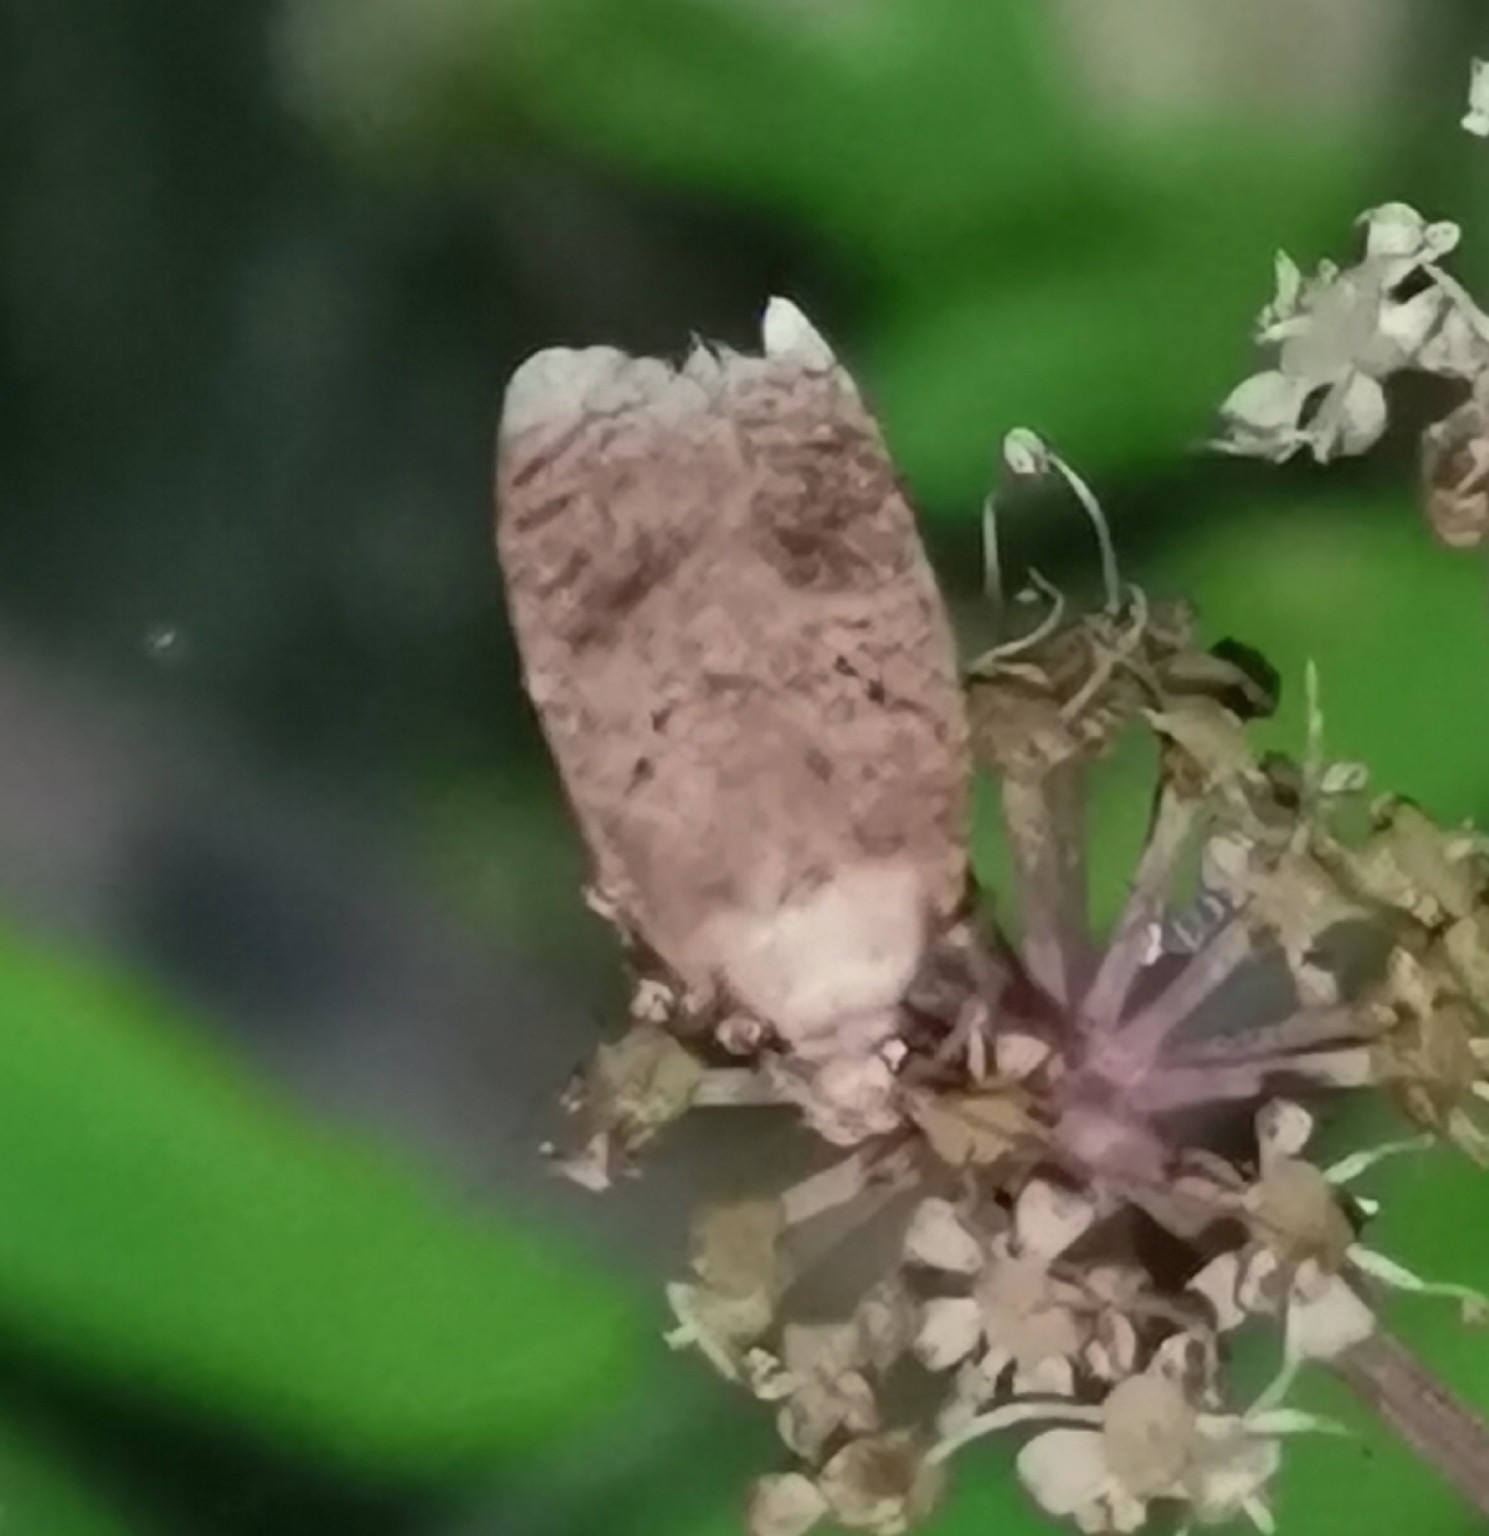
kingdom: Animalia
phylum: Arthropoda
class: Insecta
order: Lepidoptera
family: Depressariidae
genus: Agonopterix
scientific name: Agonopterix angelicella
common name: Angelica flat-body
